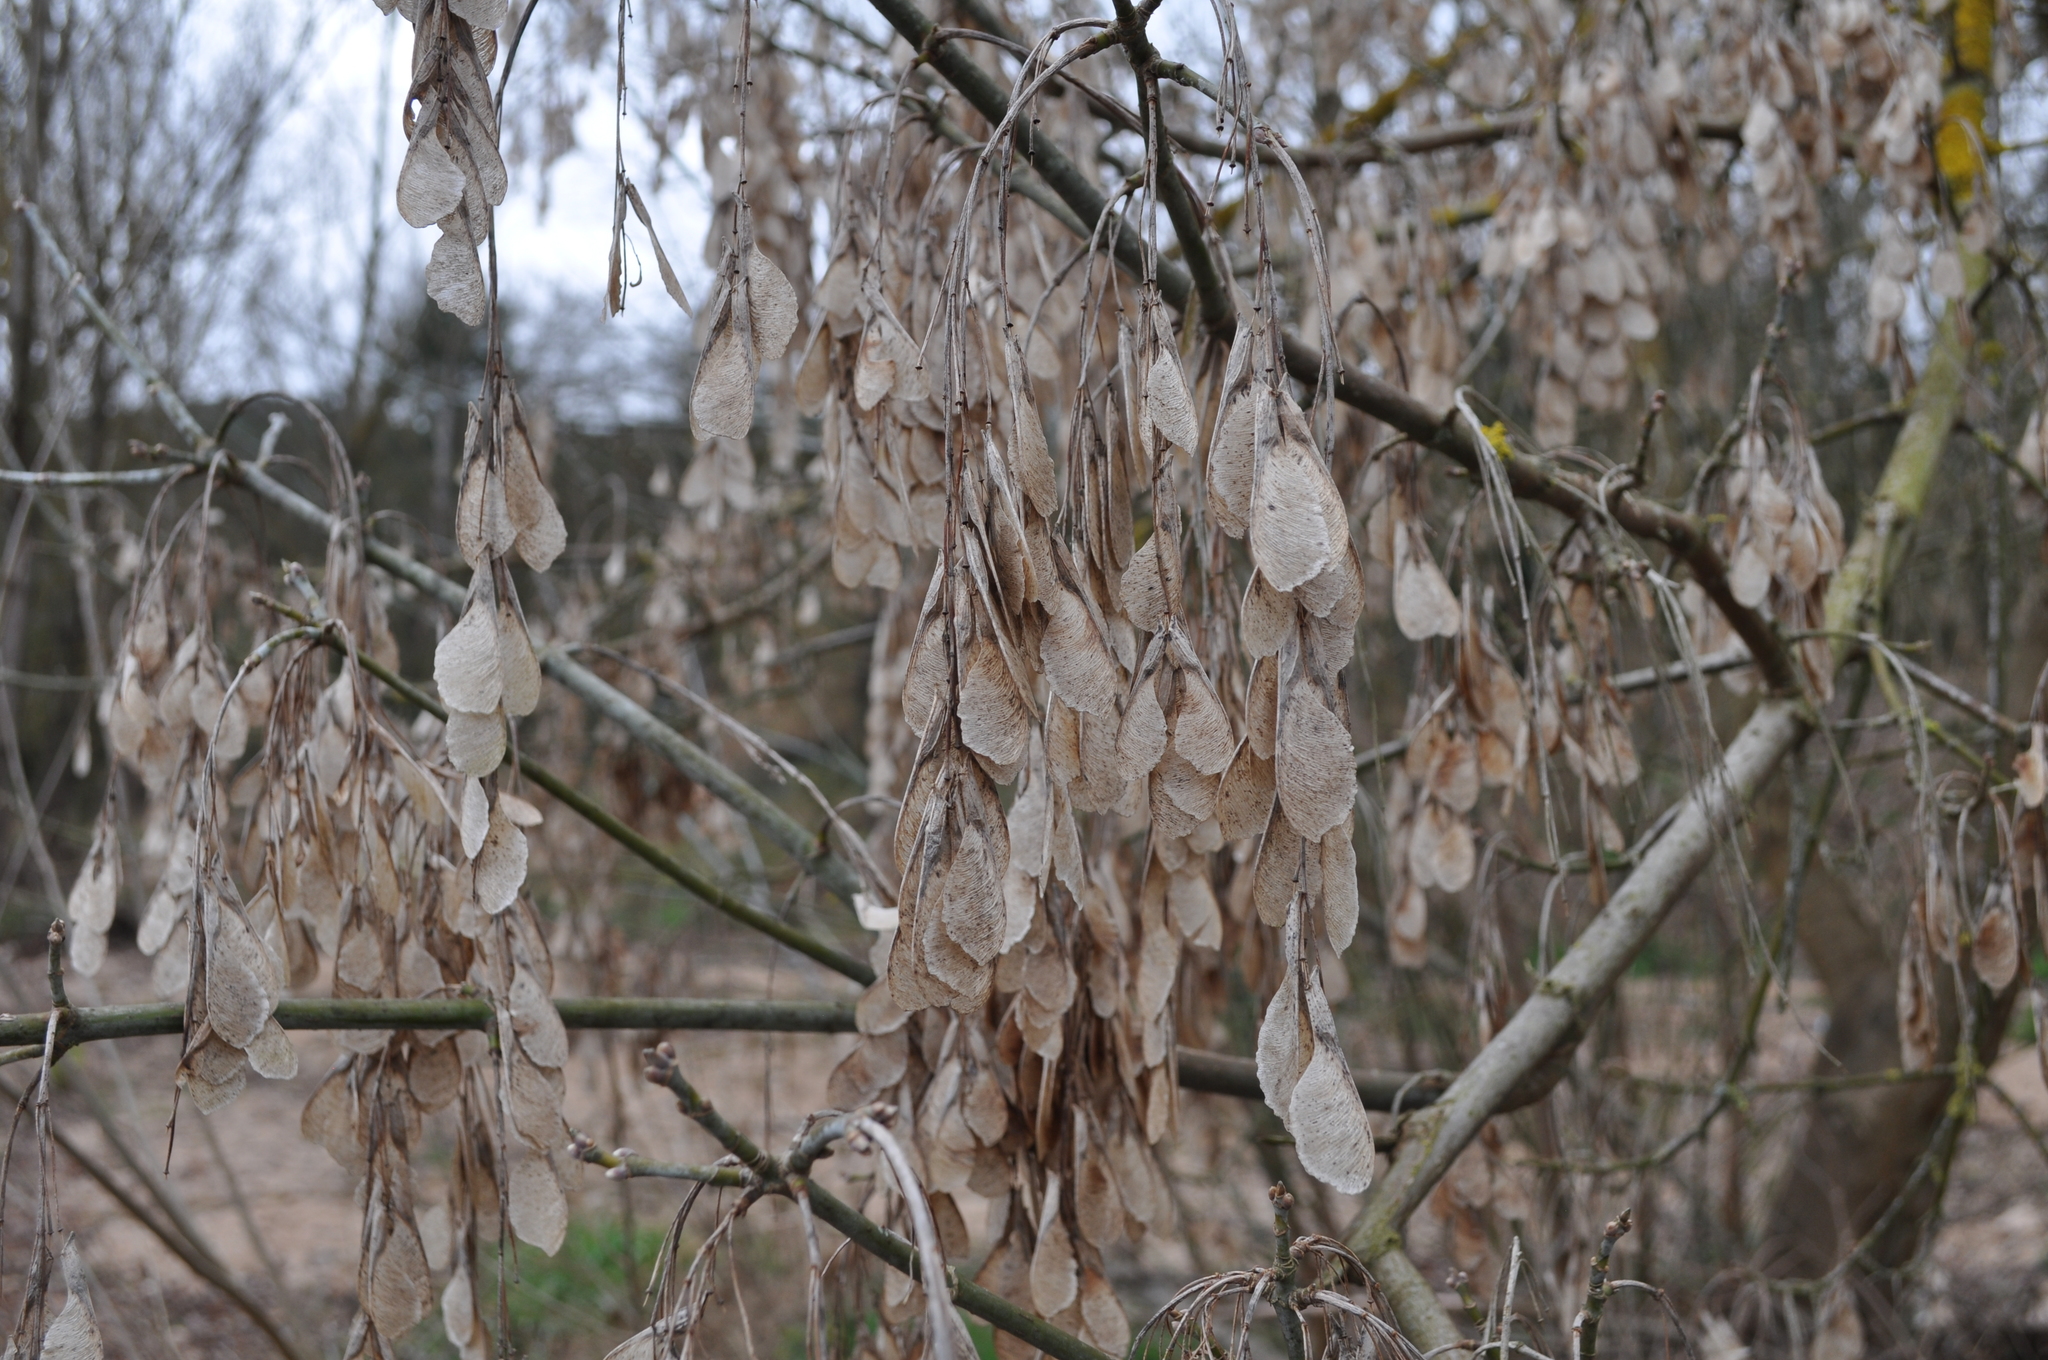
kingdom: Plantae
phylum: Tracheophyta
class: Magnoliopsida
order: Sapindales
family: Sapindaceae
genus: Acer
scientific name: Acer negundo
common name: Ashleaf maple
